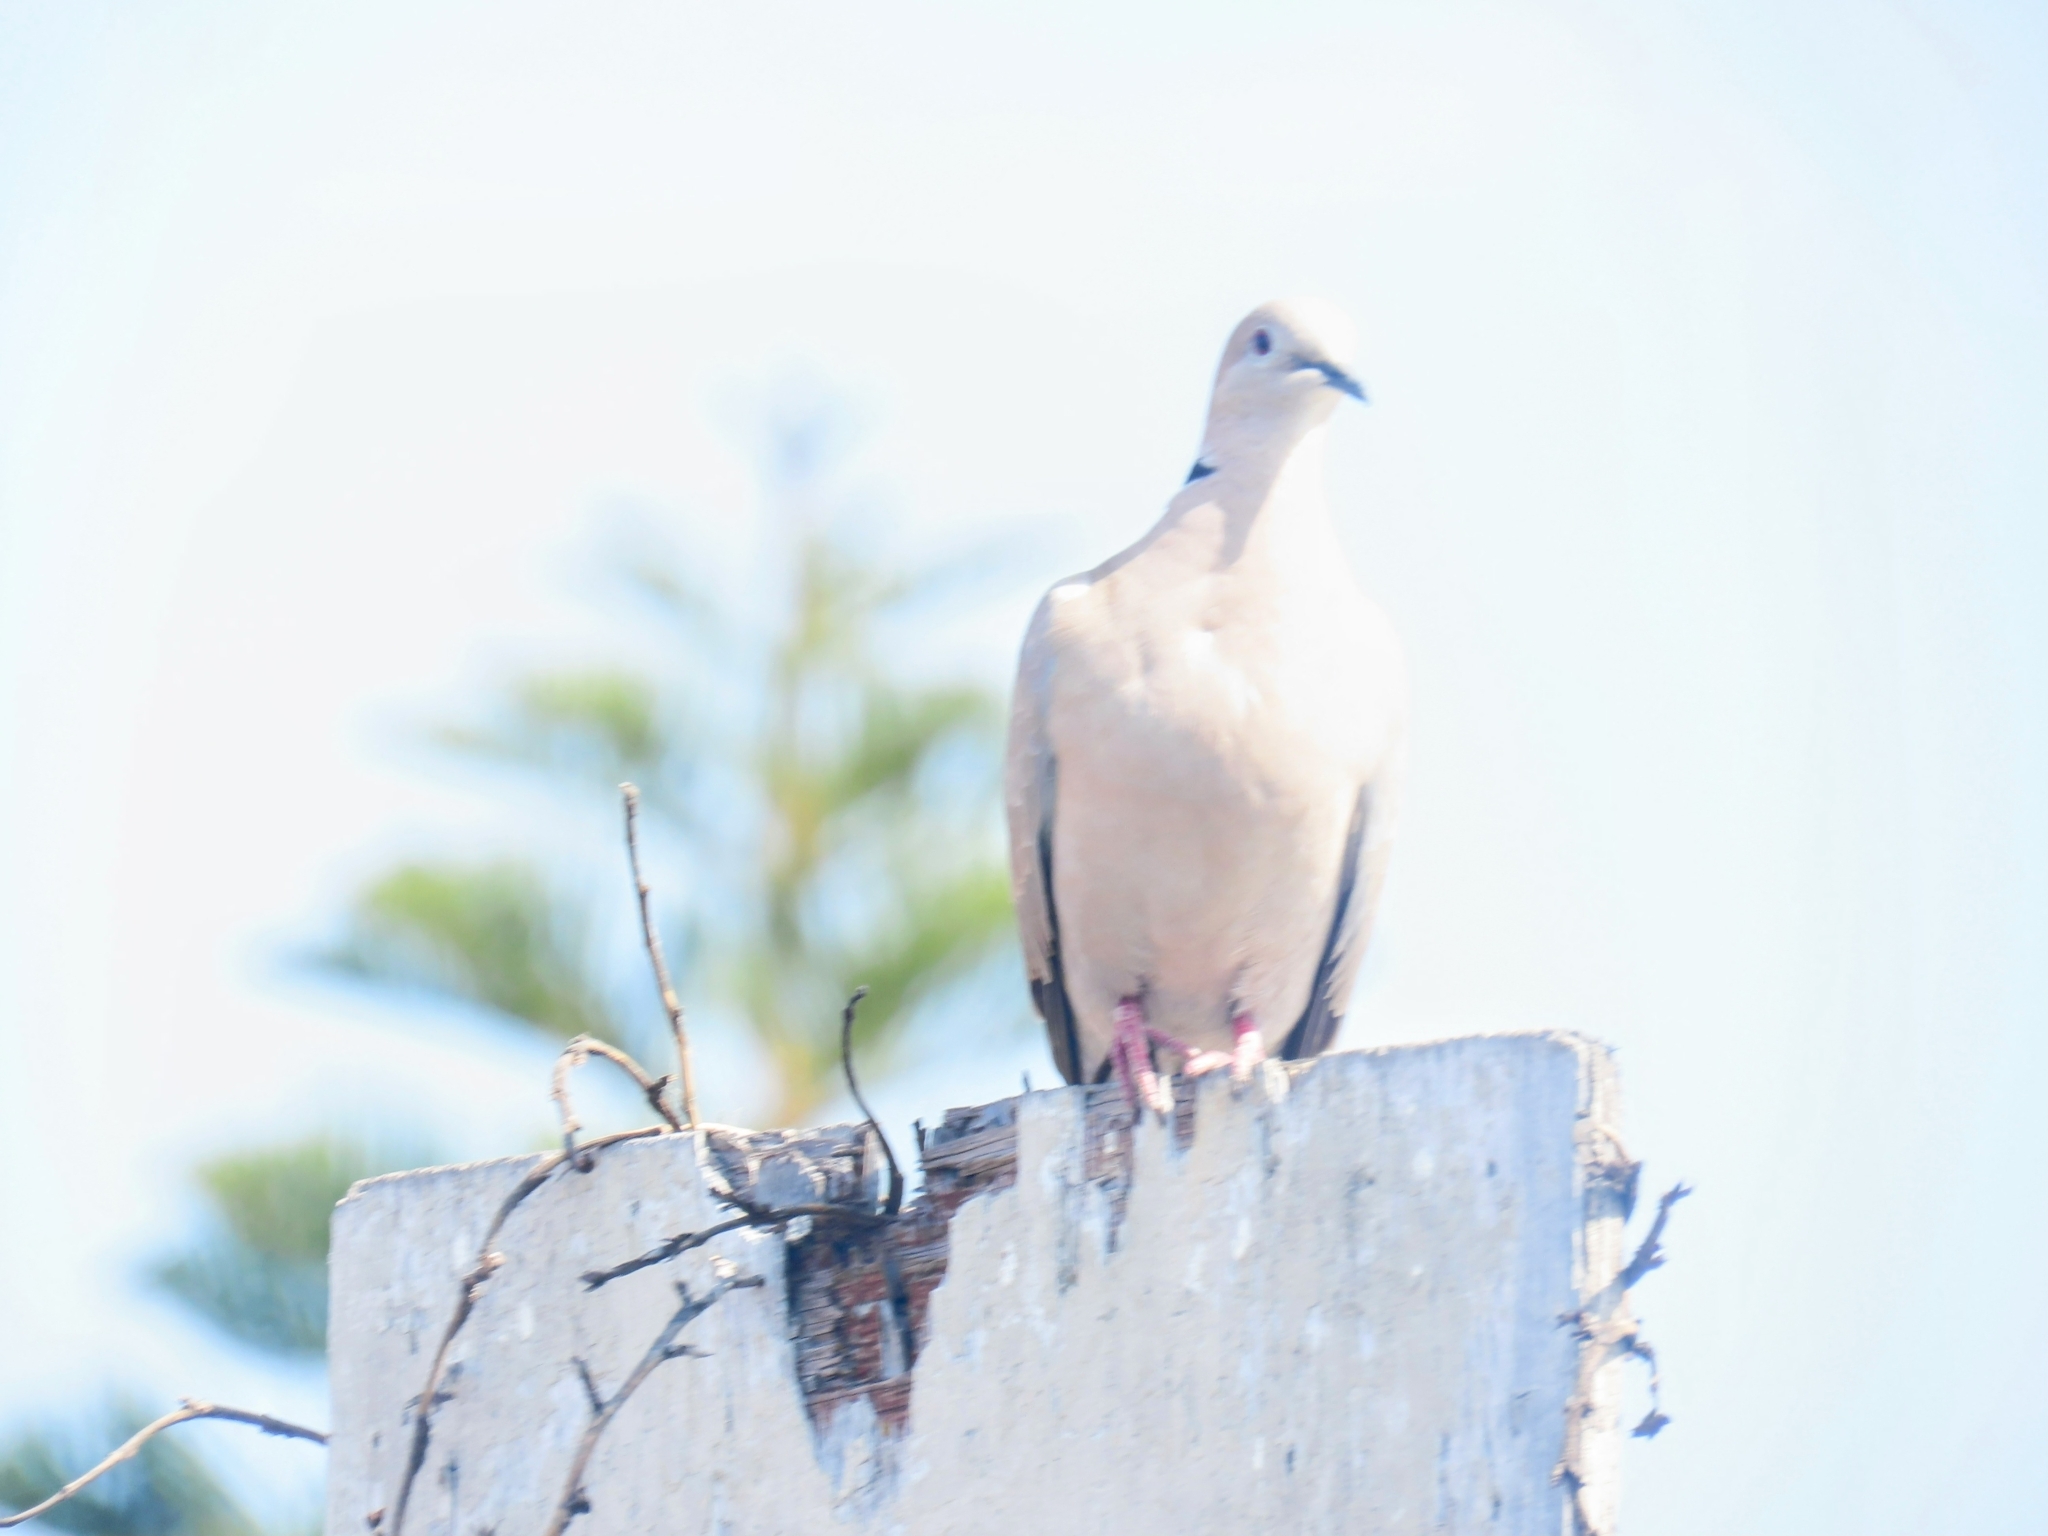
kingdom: Animalia
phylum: Chordata
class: Aves
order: Columbiformes
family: Columbidae
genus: Streptopelia
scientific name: Streptopelia decaocto
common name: Eurasian collared dove
